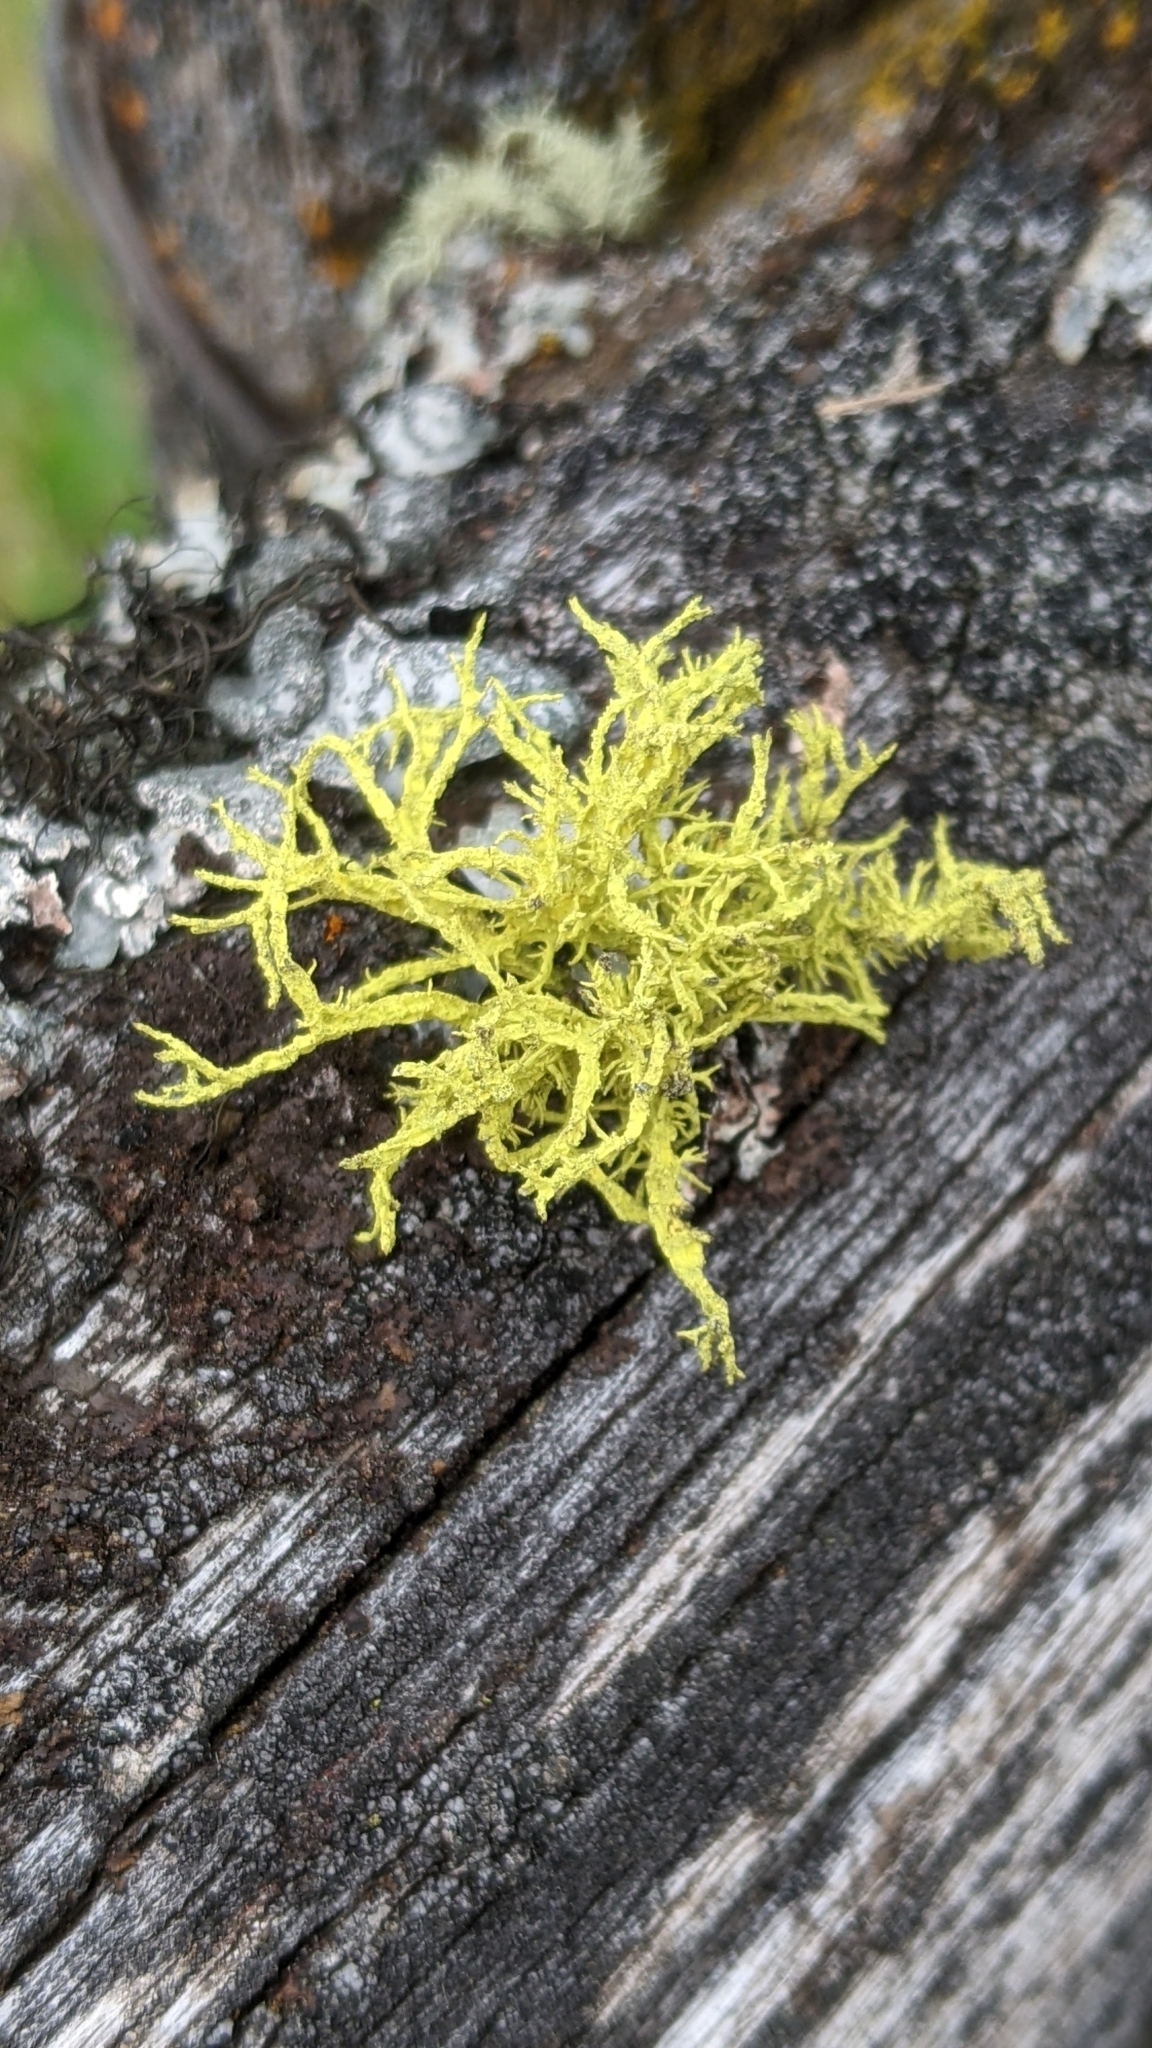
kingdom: Fungi
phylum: Ascomycota
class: Lecanoromycetes
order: Lecanorales
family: Parmeliaceae
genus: Letharia
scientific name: Letharia vulpina
